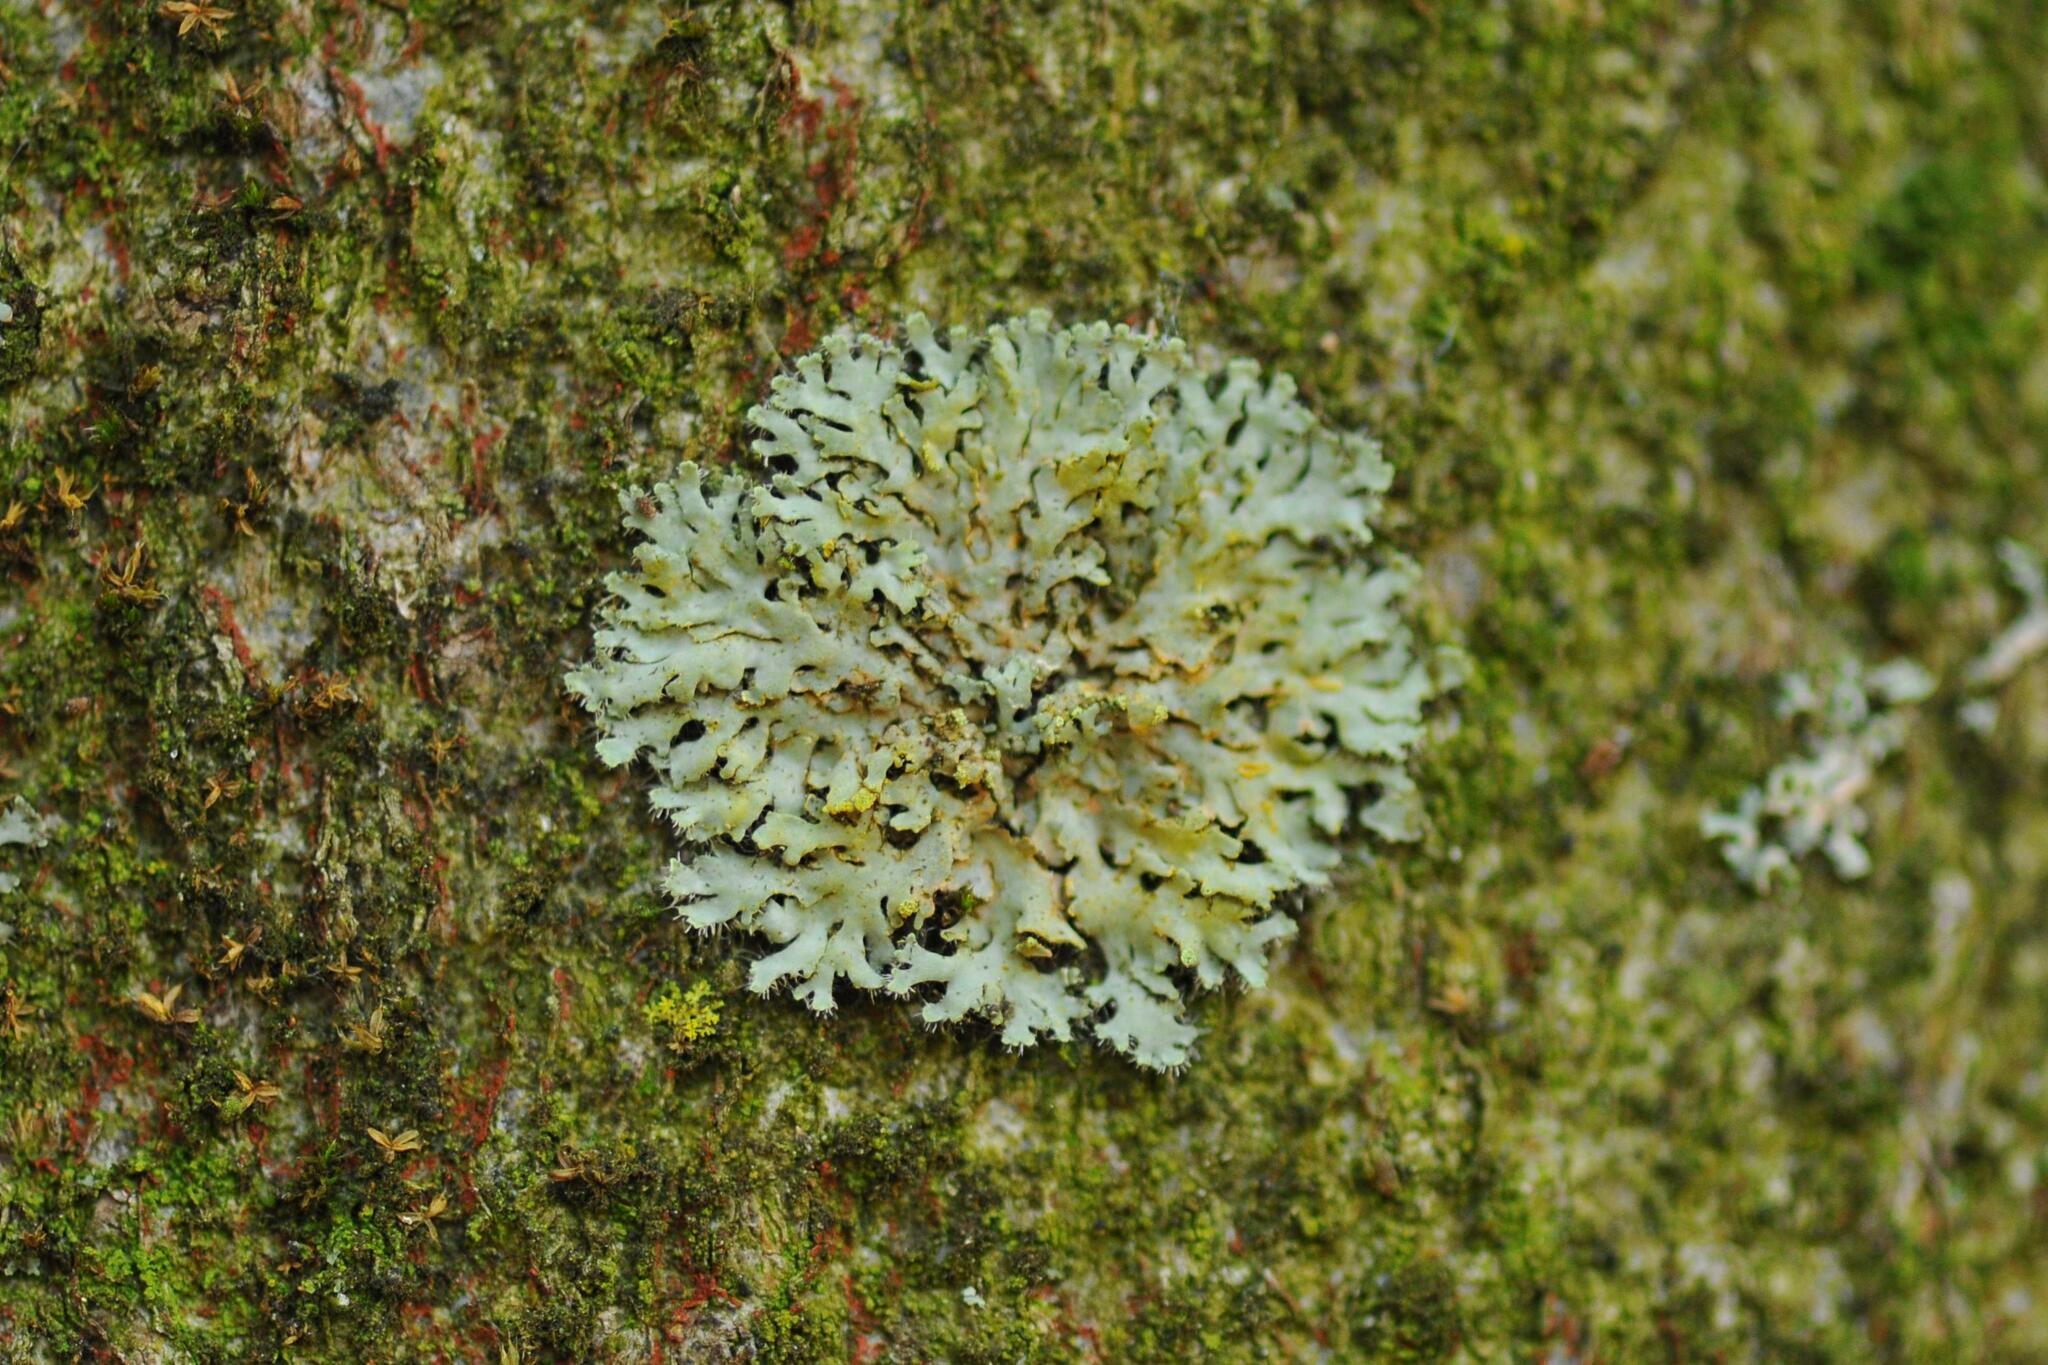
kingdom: Fungi
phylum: Ascomycota
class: Lecanoromycetes
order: Caliciales
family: Physciaceae
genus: Phaeophyscia
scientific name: Phaeophyscia orbicularis
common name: Mealy shadow lichen
